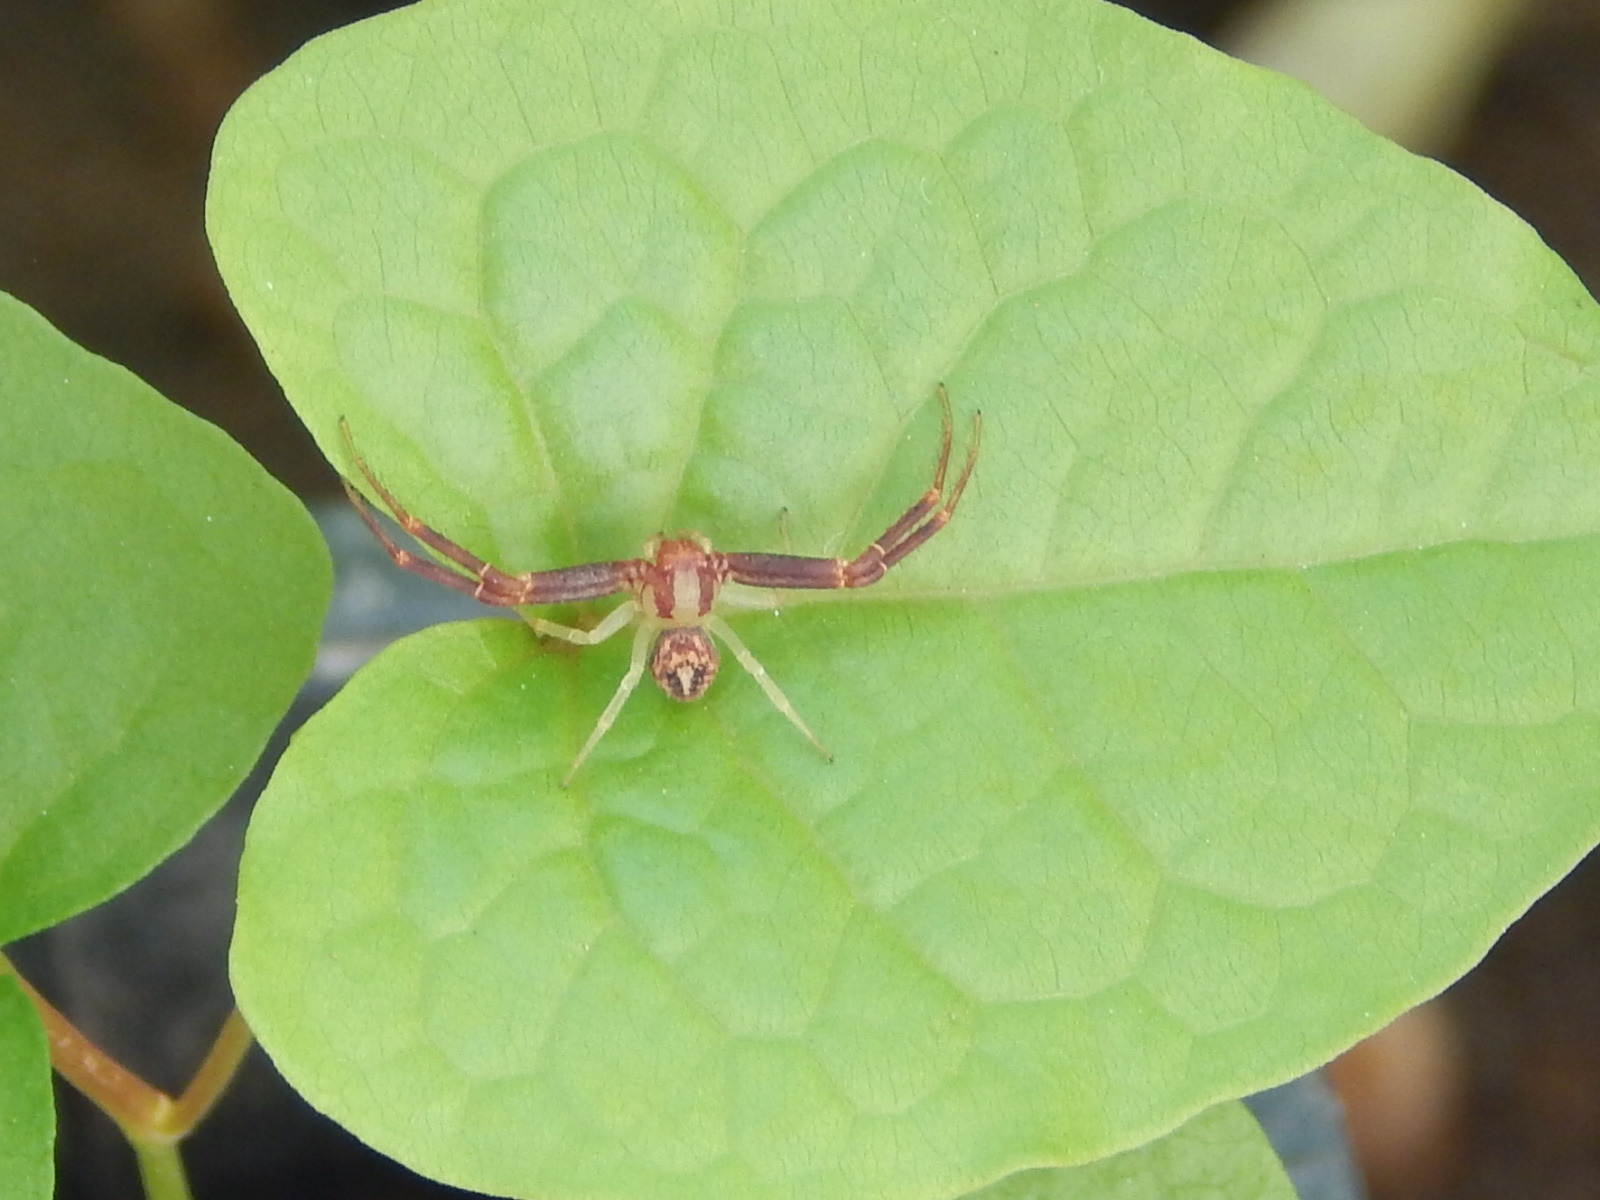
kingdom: Animalia
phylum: Arthropoda
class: Arachnida
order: Araneae
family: Thomisidae
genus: Misumenops
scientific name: Misumenops maculissparsus
